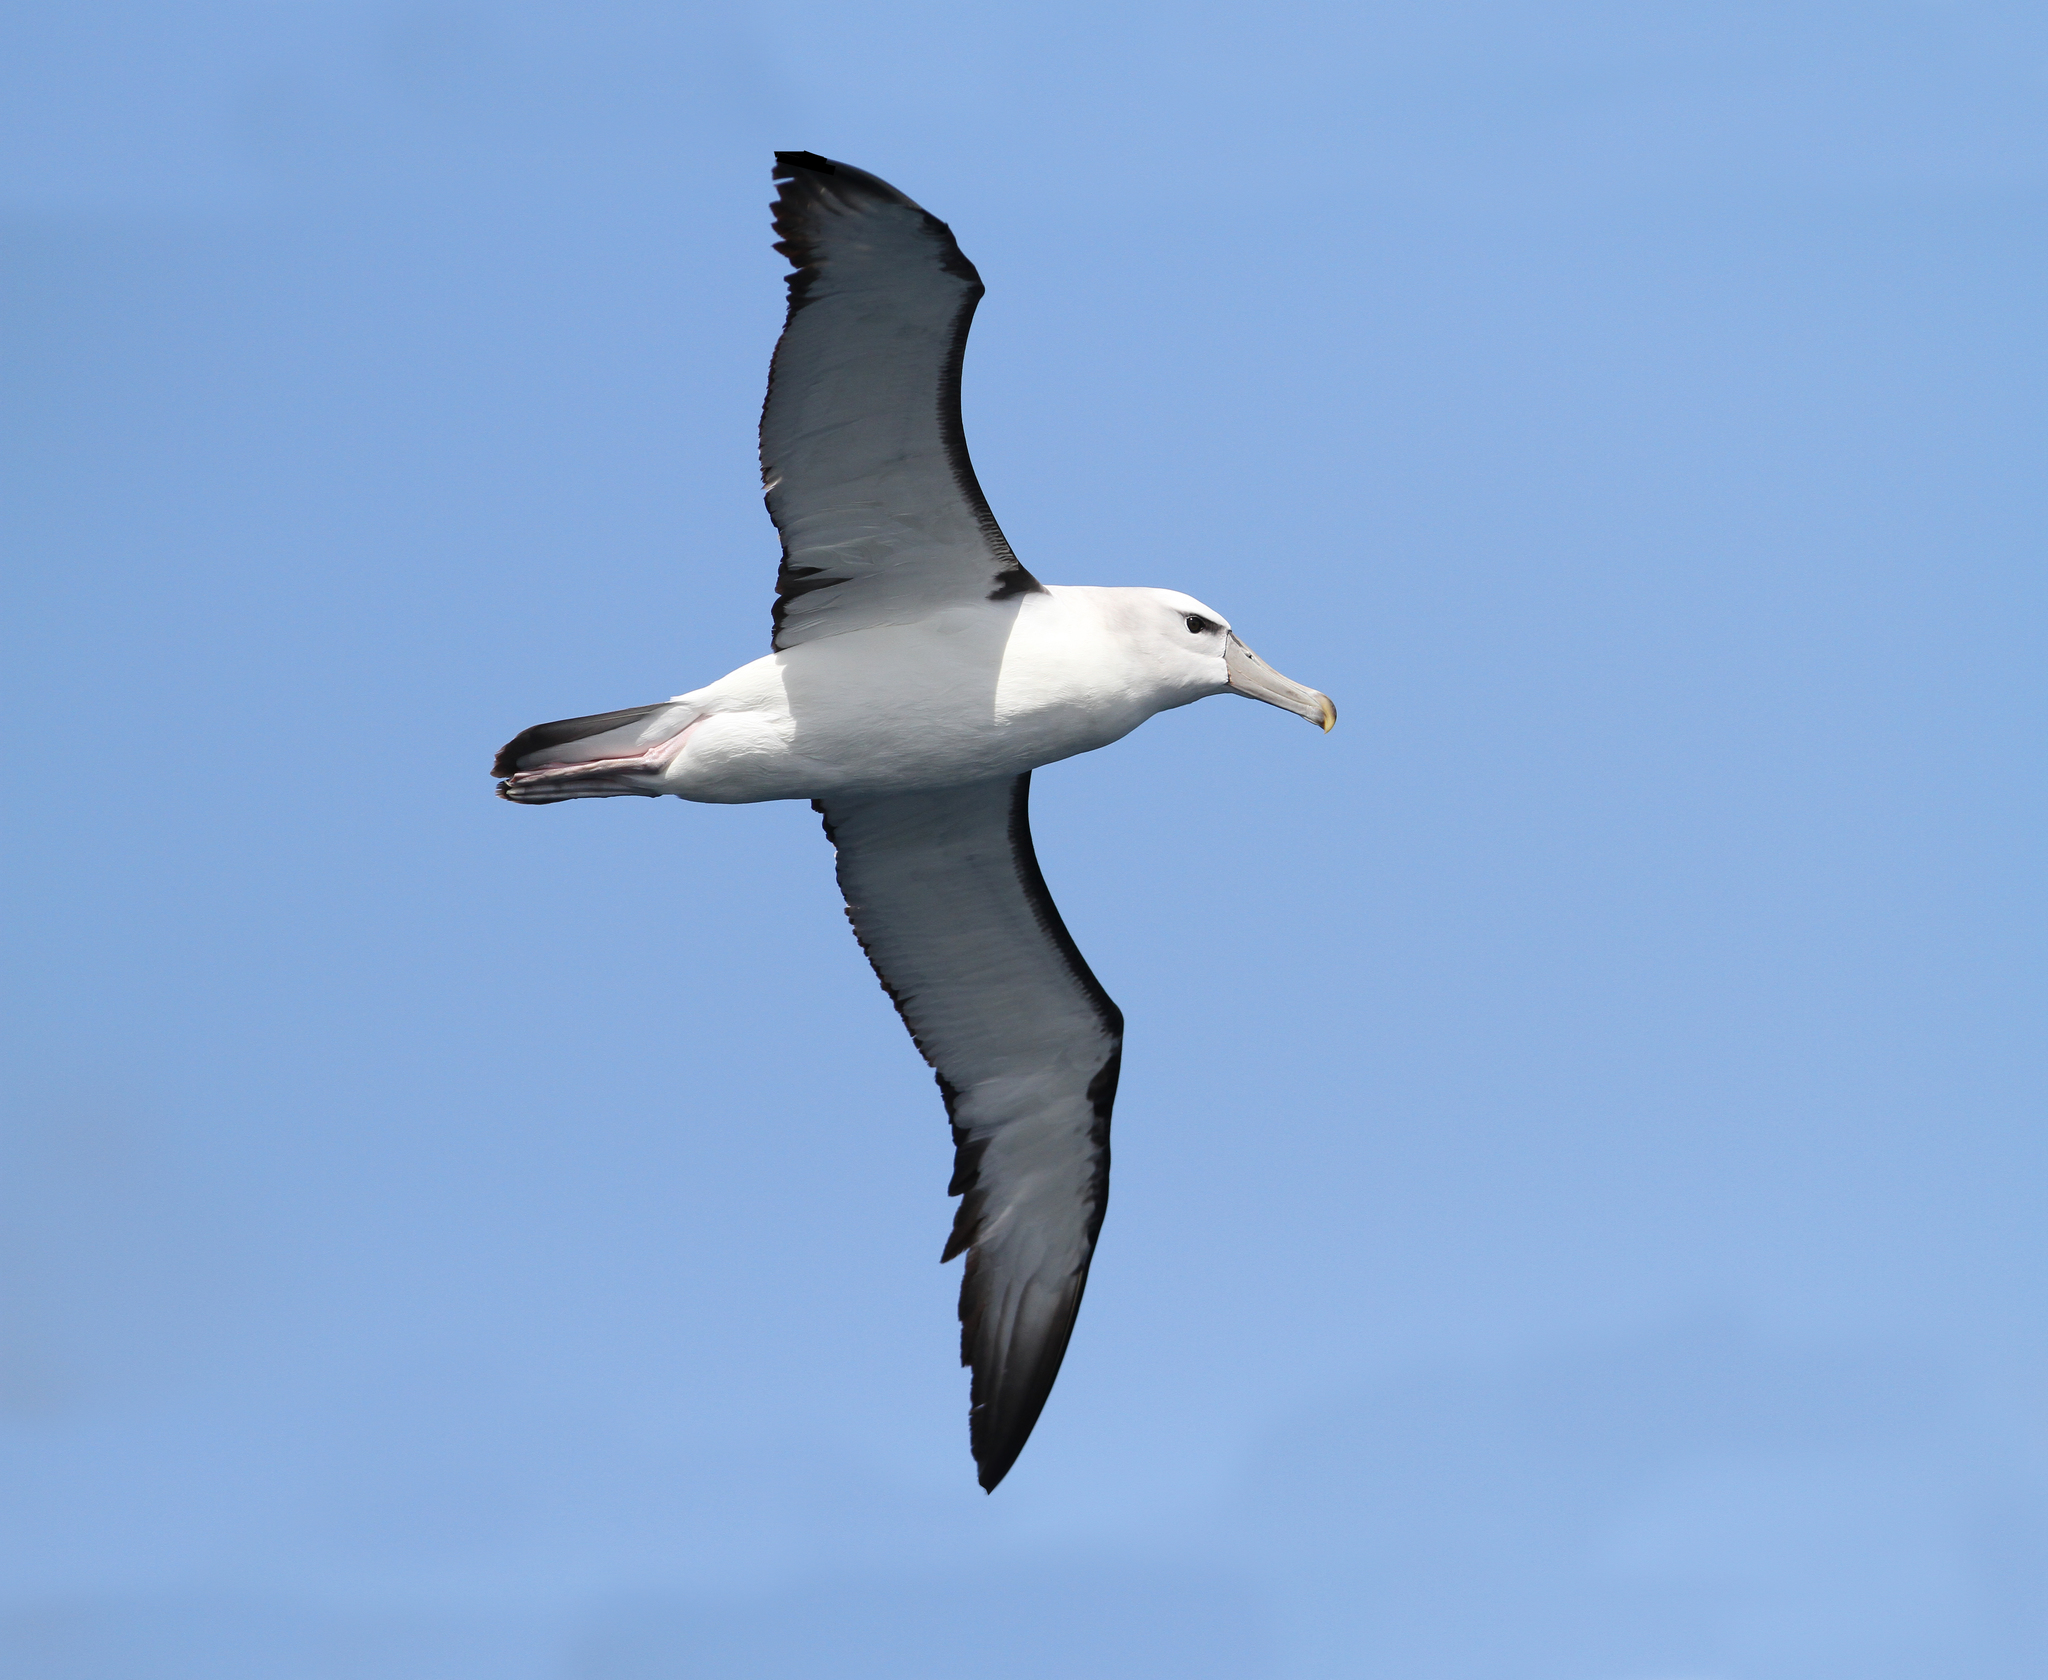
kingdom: Animalia
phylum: Chordata
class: Aves
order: Procellariiformes
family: Diomedeidae
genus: Thalassarche
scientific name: Thalassarche cauta
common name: Shy albatross
